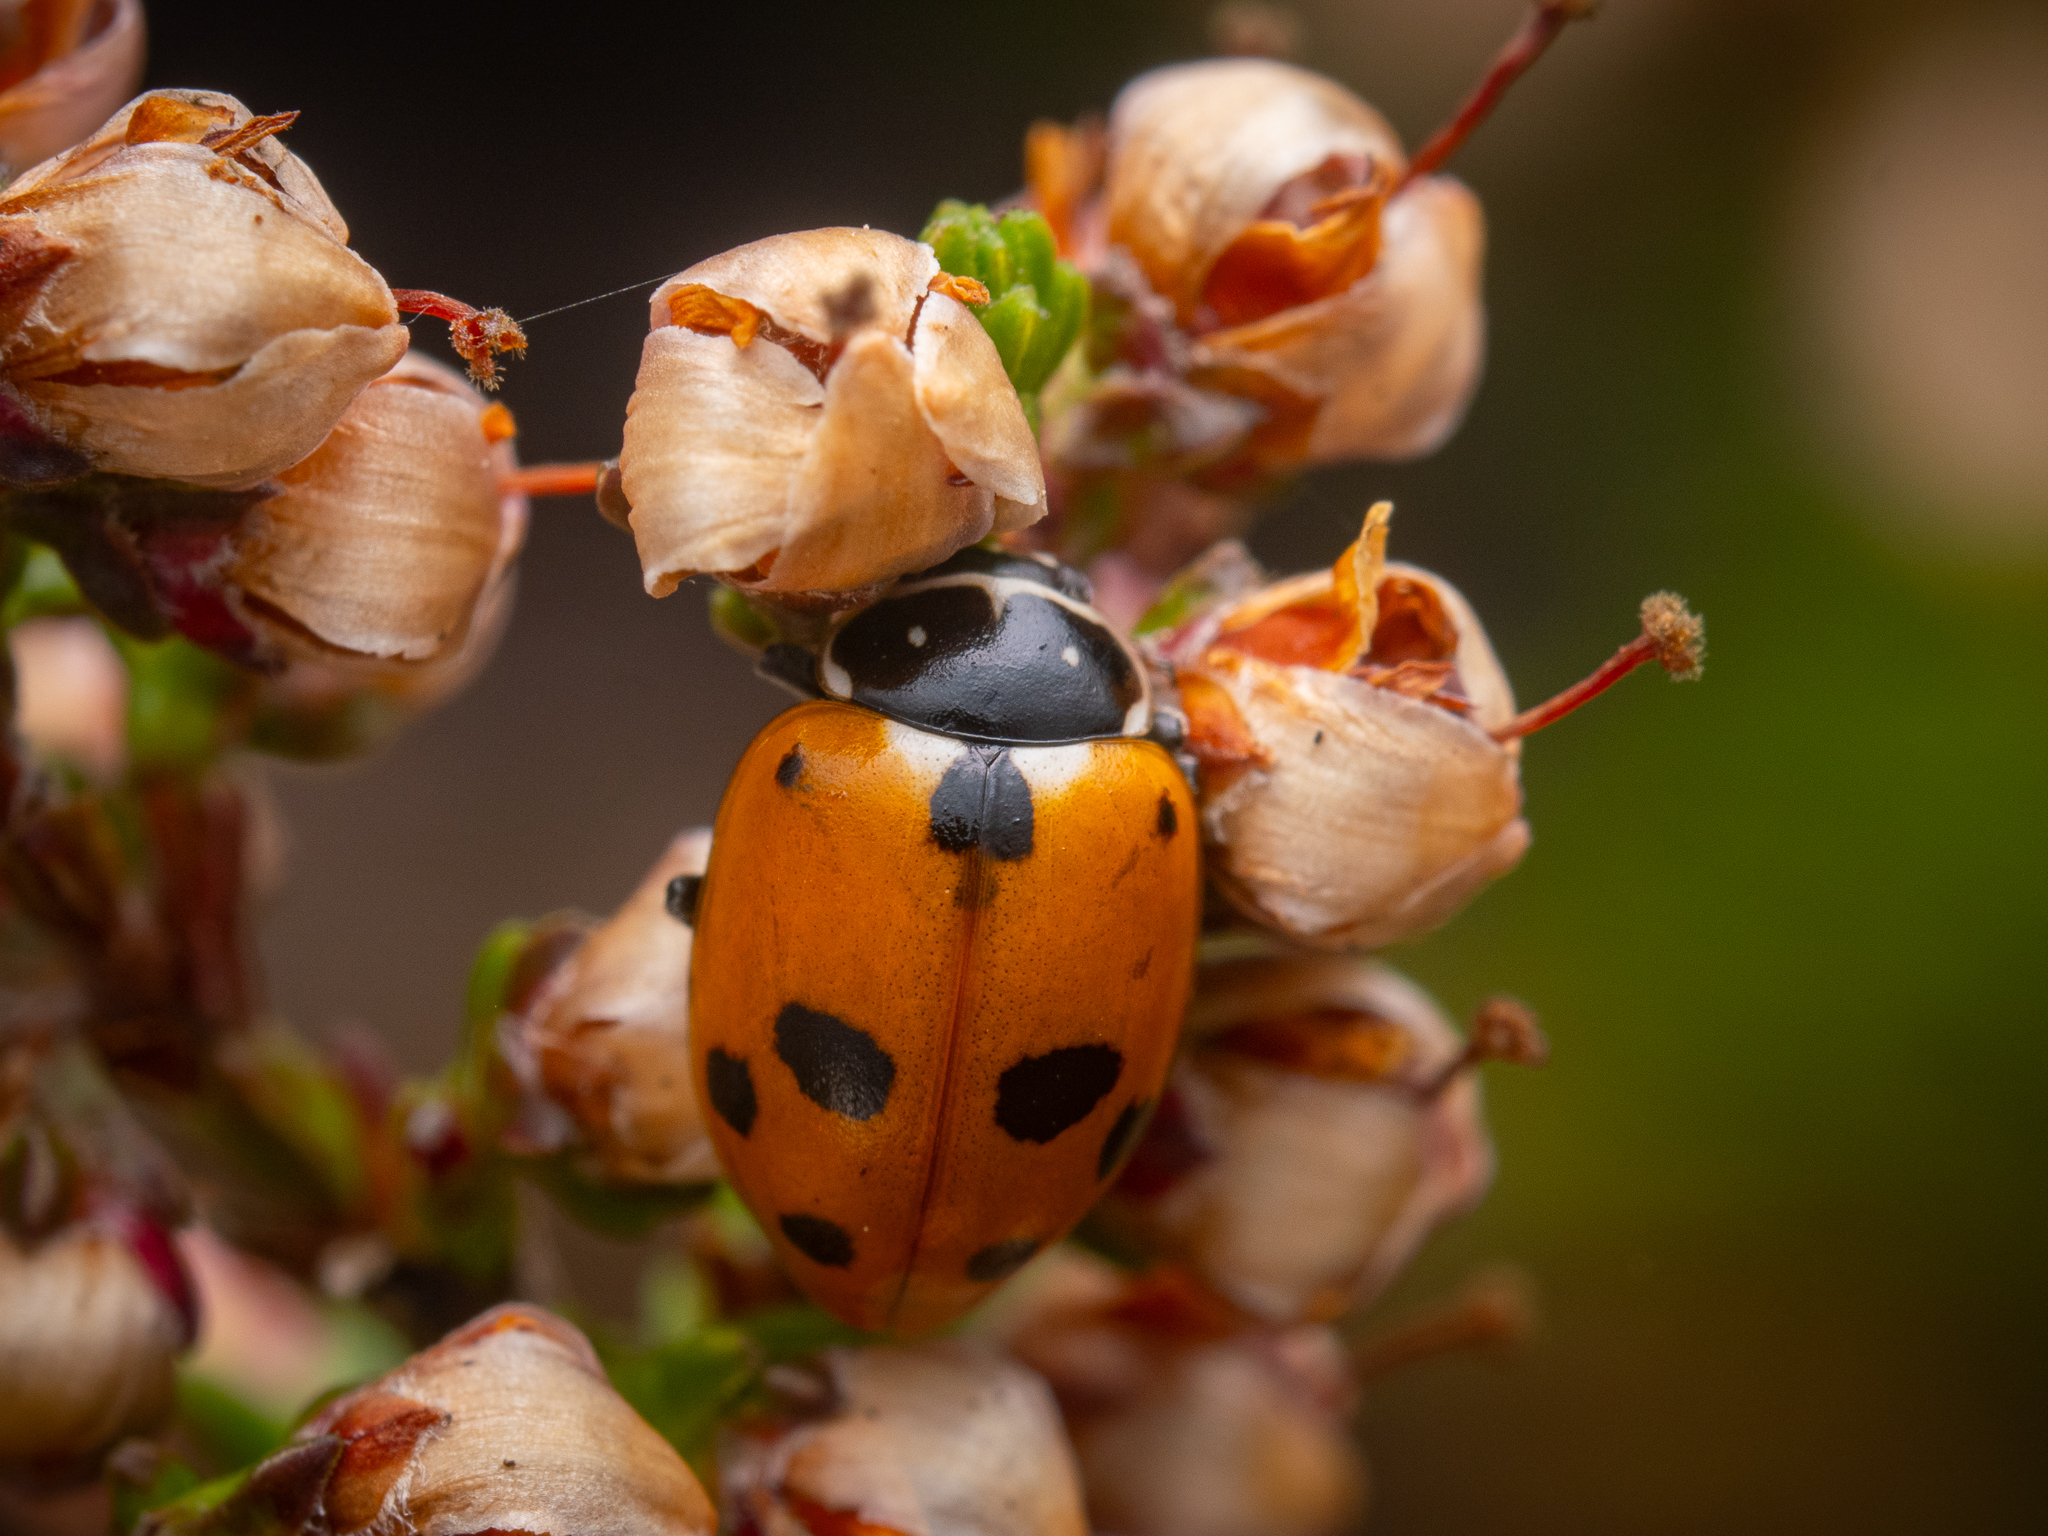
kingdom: Animalia
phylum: Arthropoda
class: Insecta
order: Coleoptera
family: Coccinellidae
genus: Hippodamia
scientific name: Hippodamia variegata
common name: Ladybird beetle
